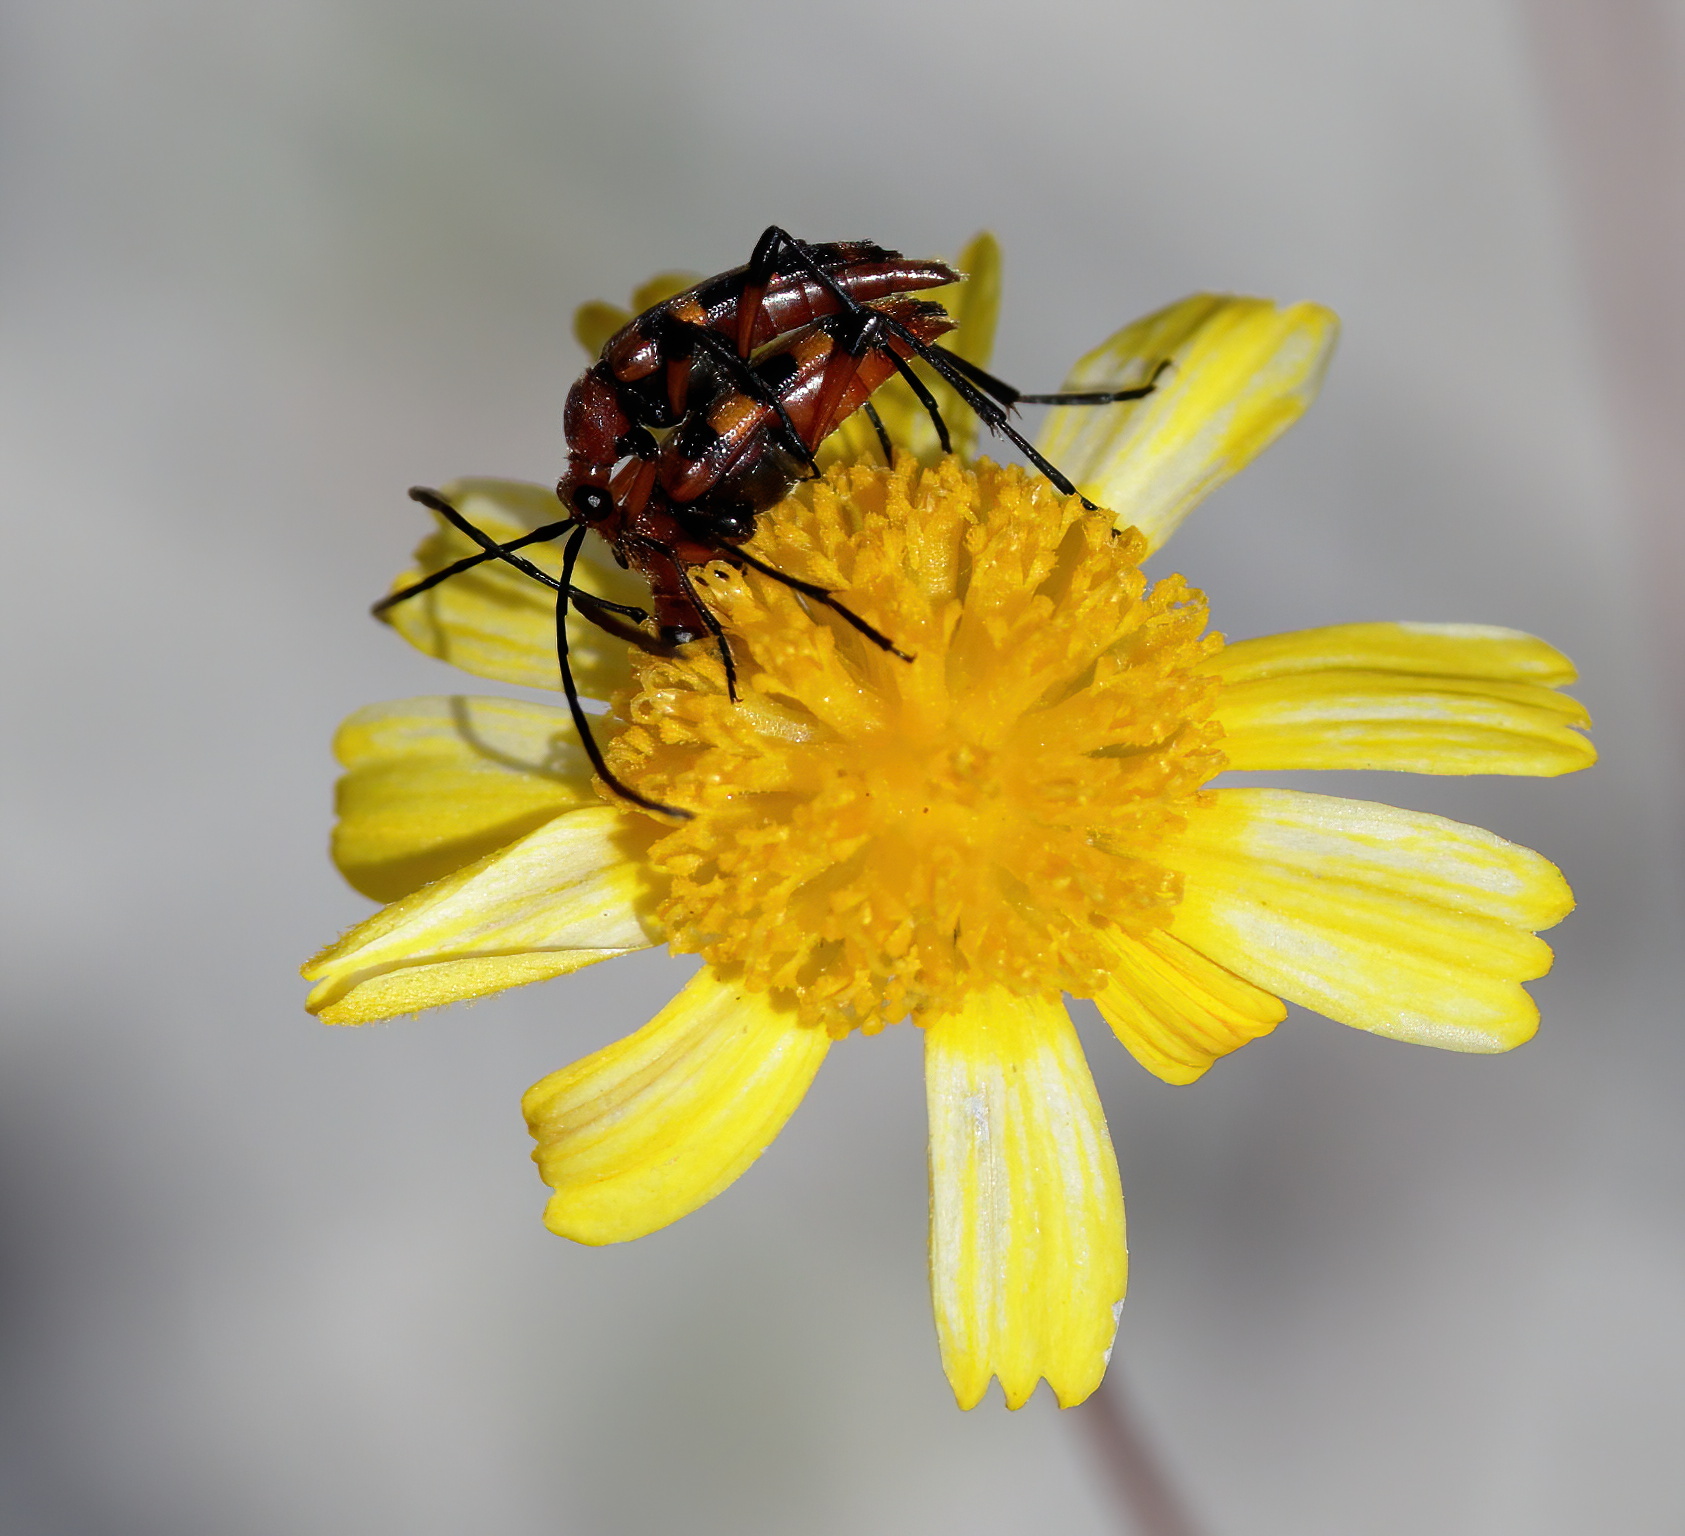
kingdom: Animalia
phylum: Arthropoda
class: Insecta
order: Coleoptera
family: Cerambycidae
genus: Strangalia
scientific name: Strangalia sexnotata
